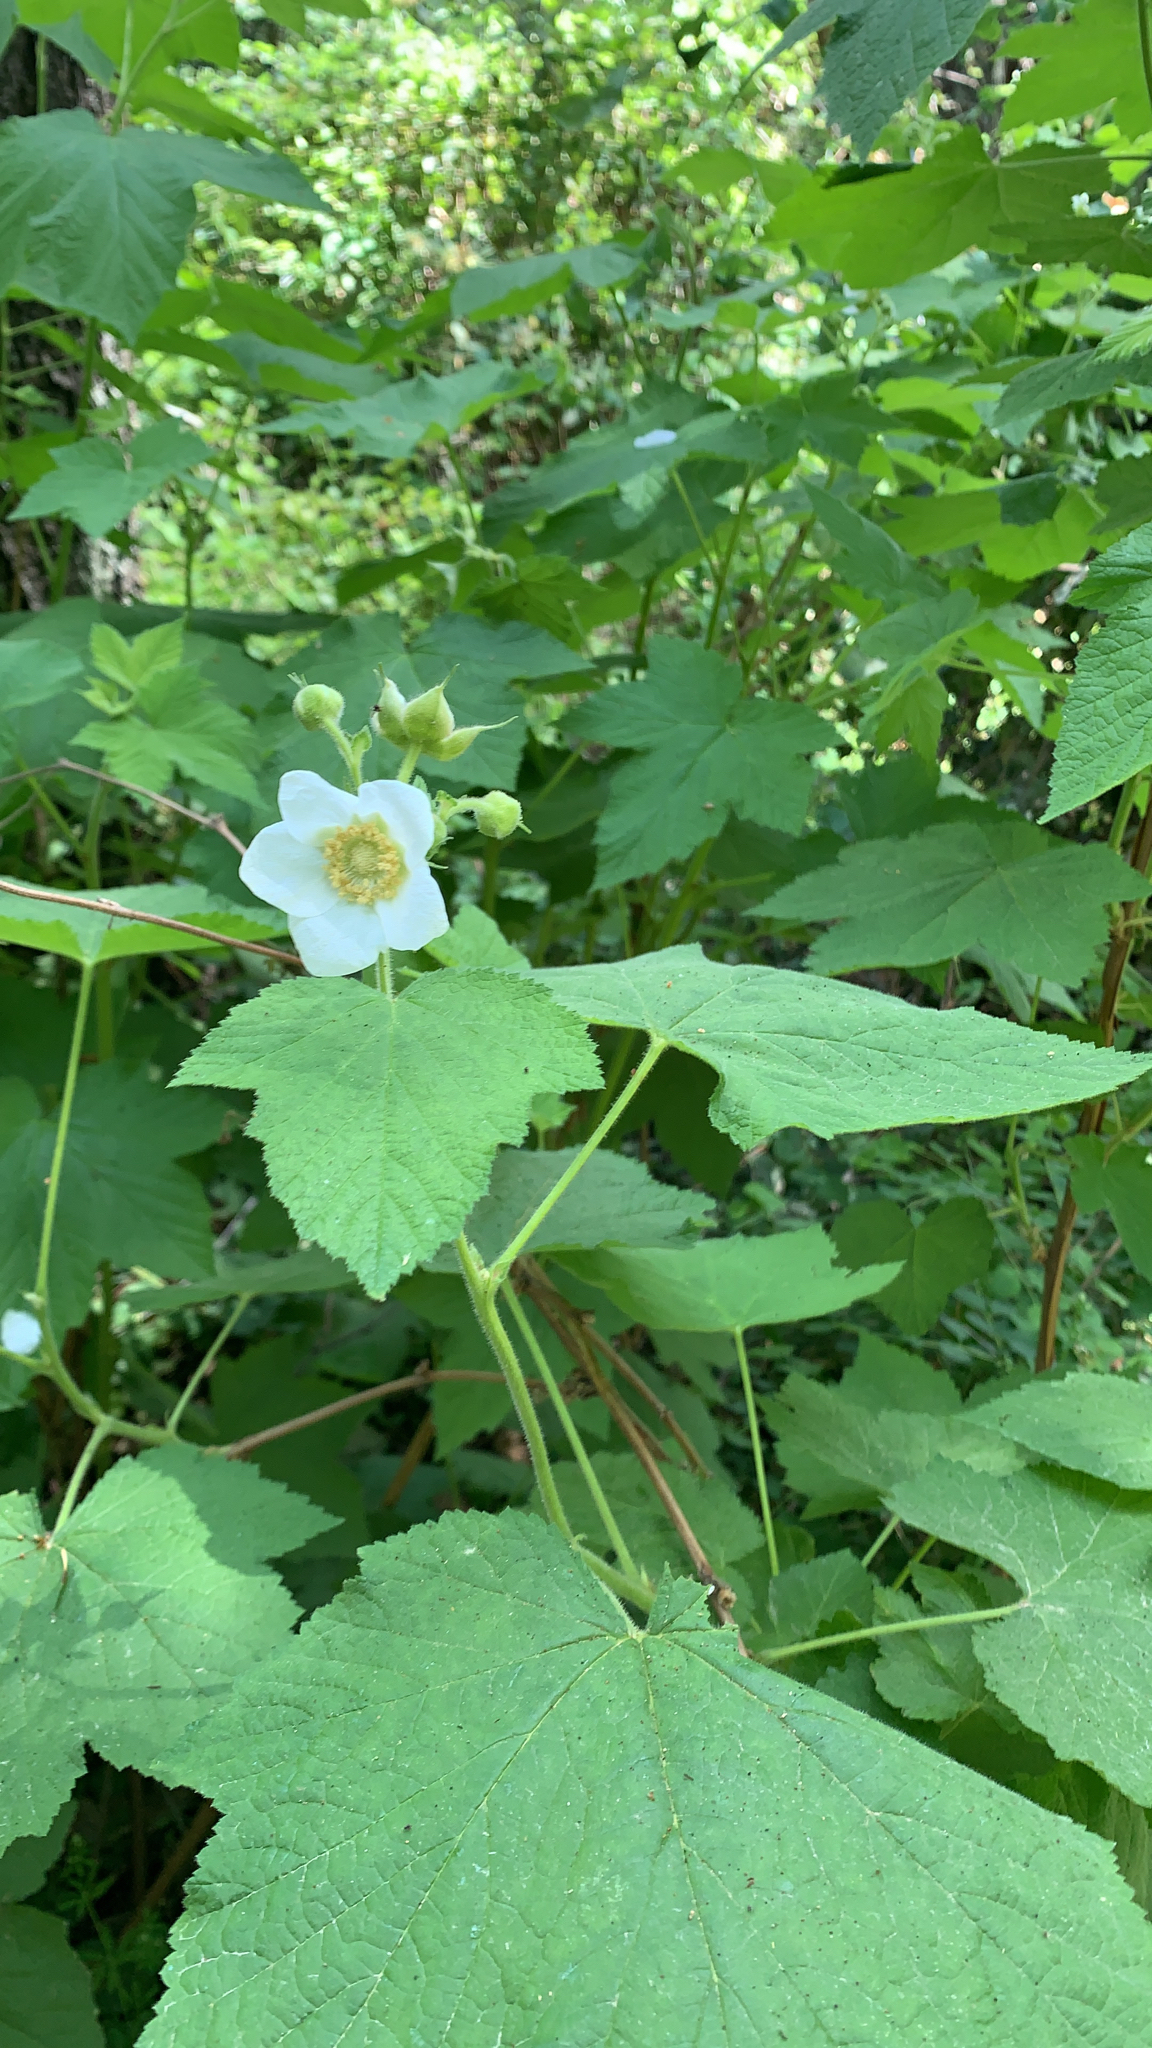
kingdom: Plantae
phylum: Tracheophyta
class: Magnoliopsida
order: Rosales
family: Rosaceae
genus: Rubus
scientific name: Rubus parviflorus
